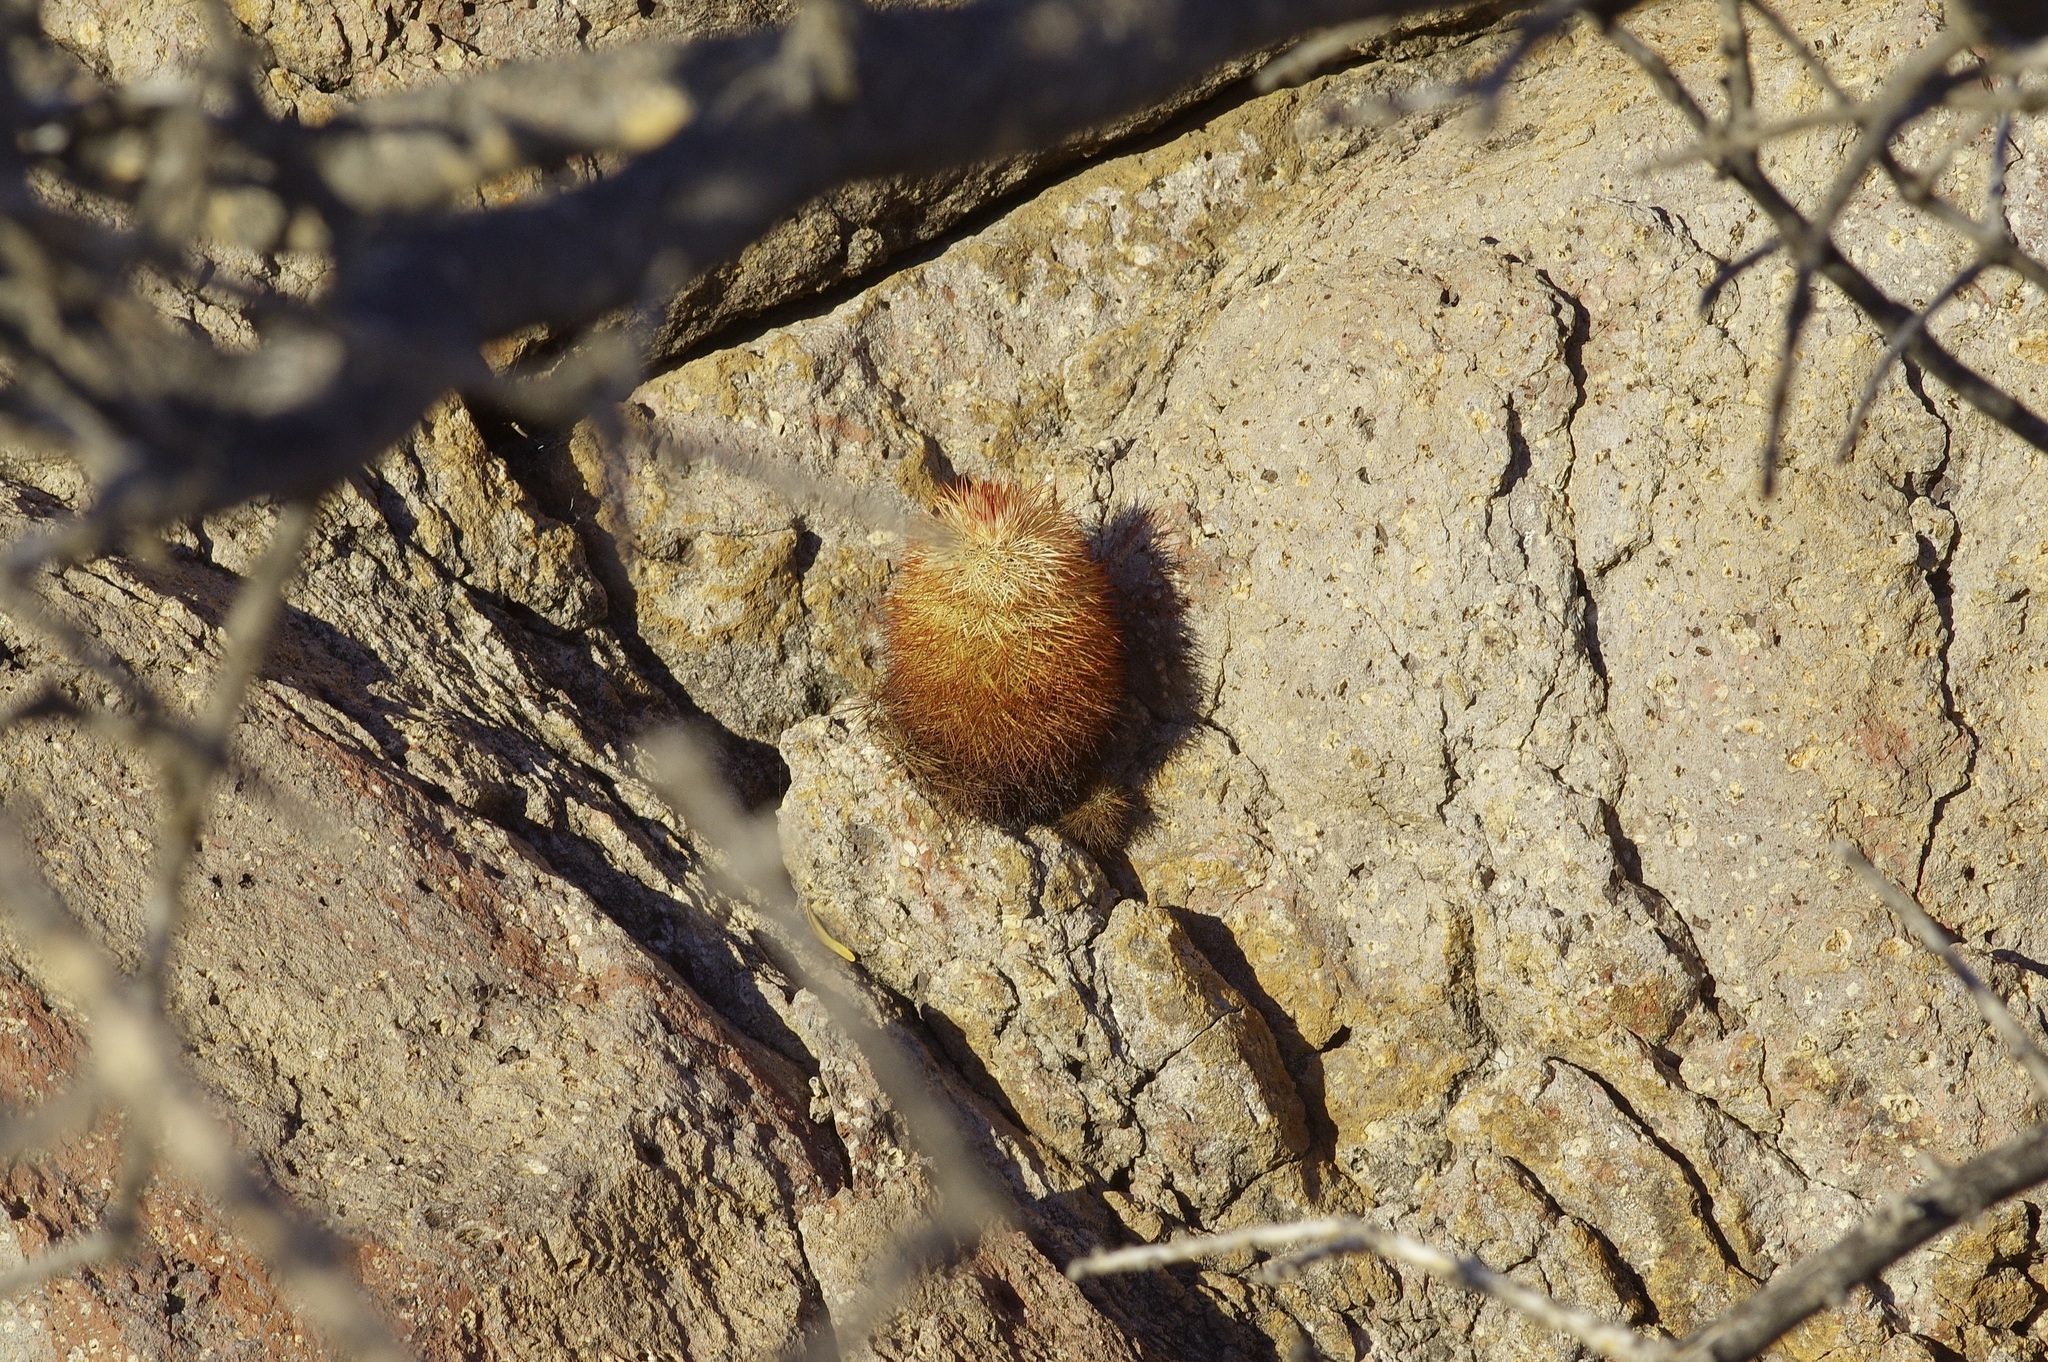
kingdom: Plantae
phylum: Tracheophyta
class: Magnoliopsida
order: Caryophyllales
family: Cactaceae
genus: Echinocereus
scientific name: Echinocereus dasyacanthus
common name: Spiny hedgehog cactus
